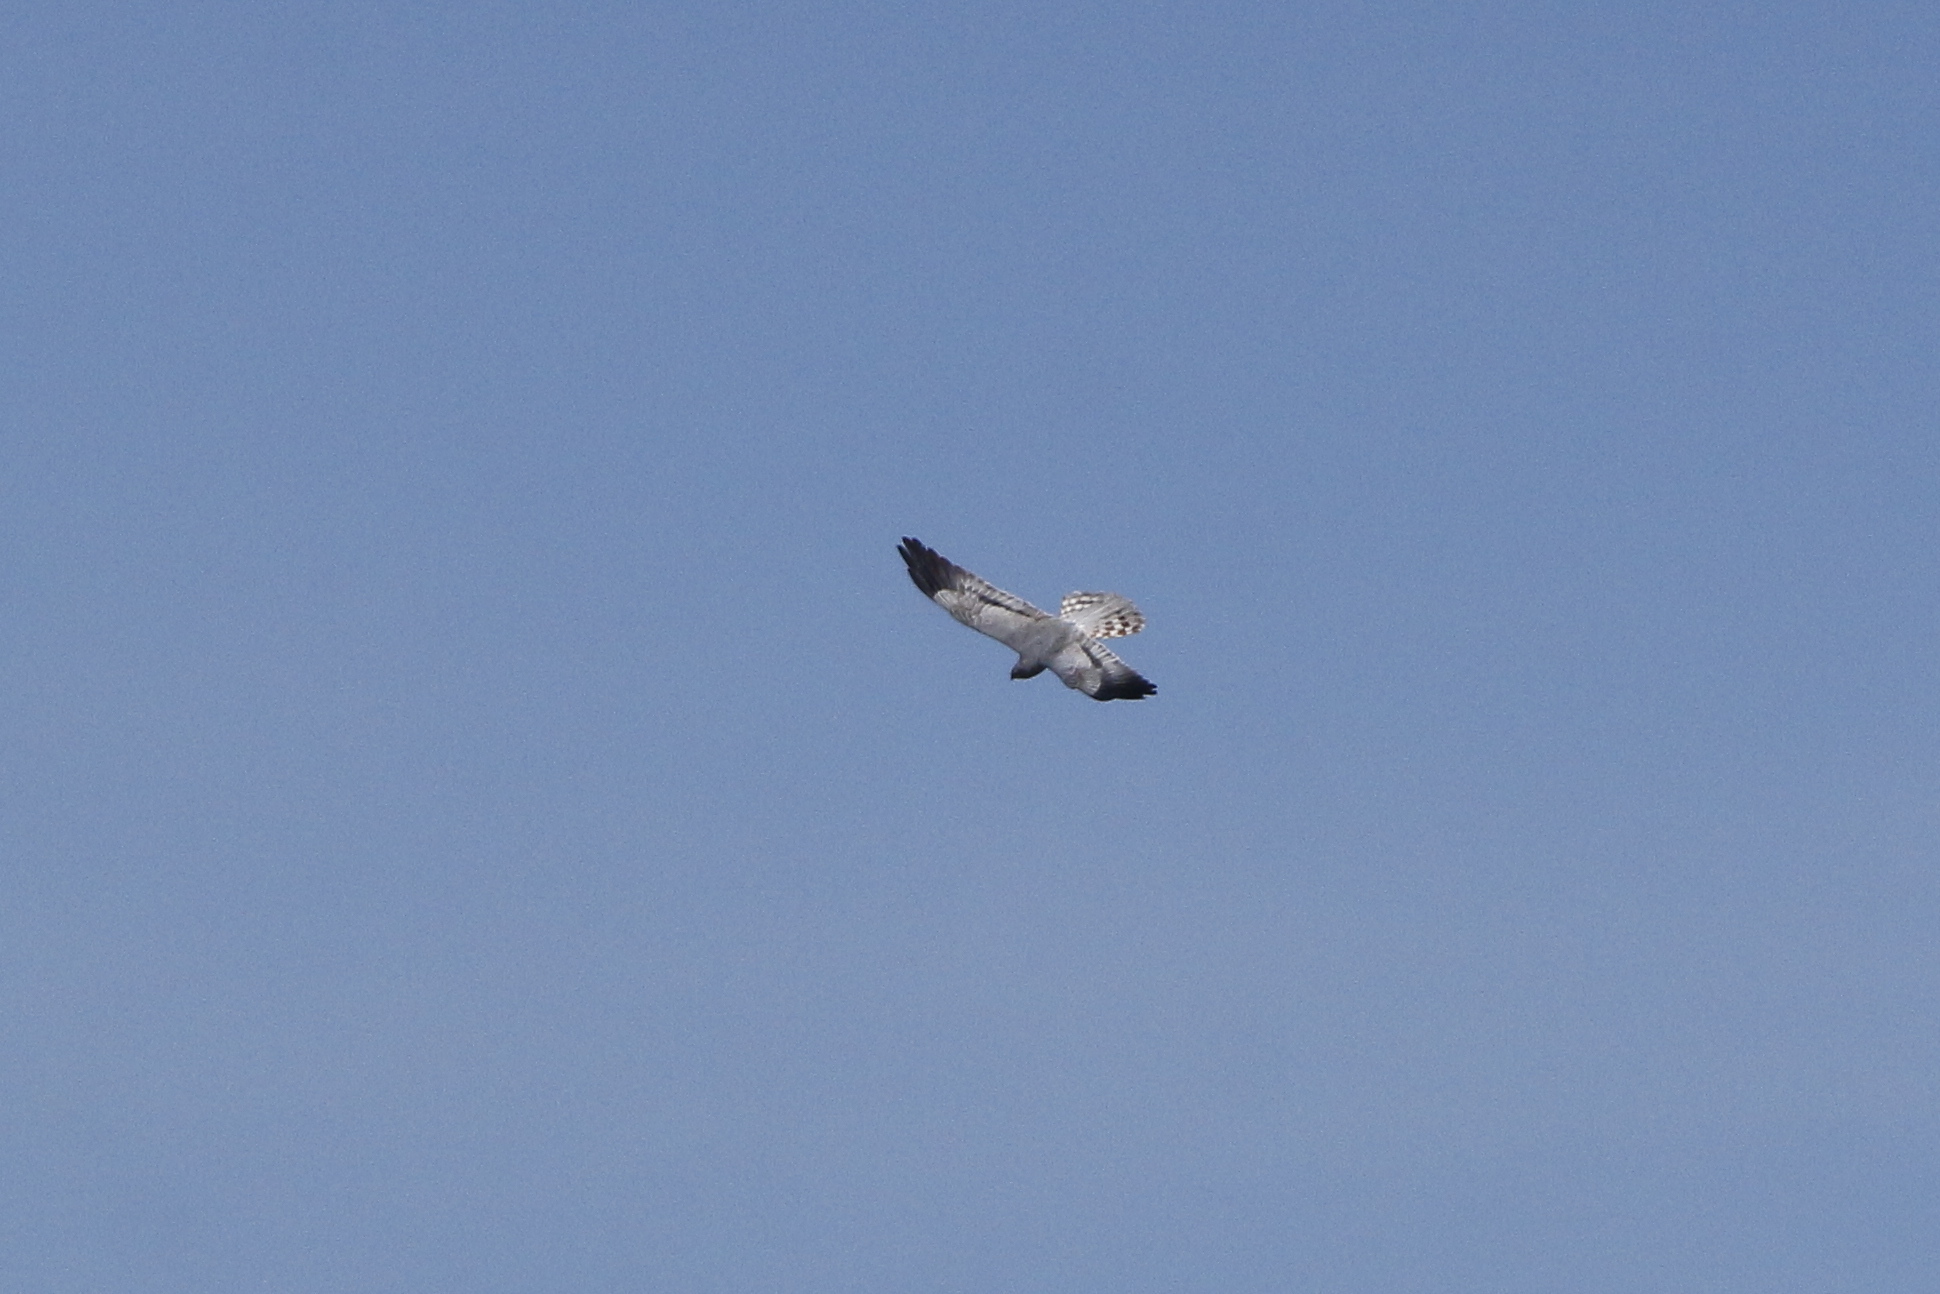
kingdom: Animalia
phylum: Chordata
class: Aves
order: Accipitriformes
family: Accipitridae
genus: Circus
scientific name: Circus pygargus
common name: Montagu's harrier
